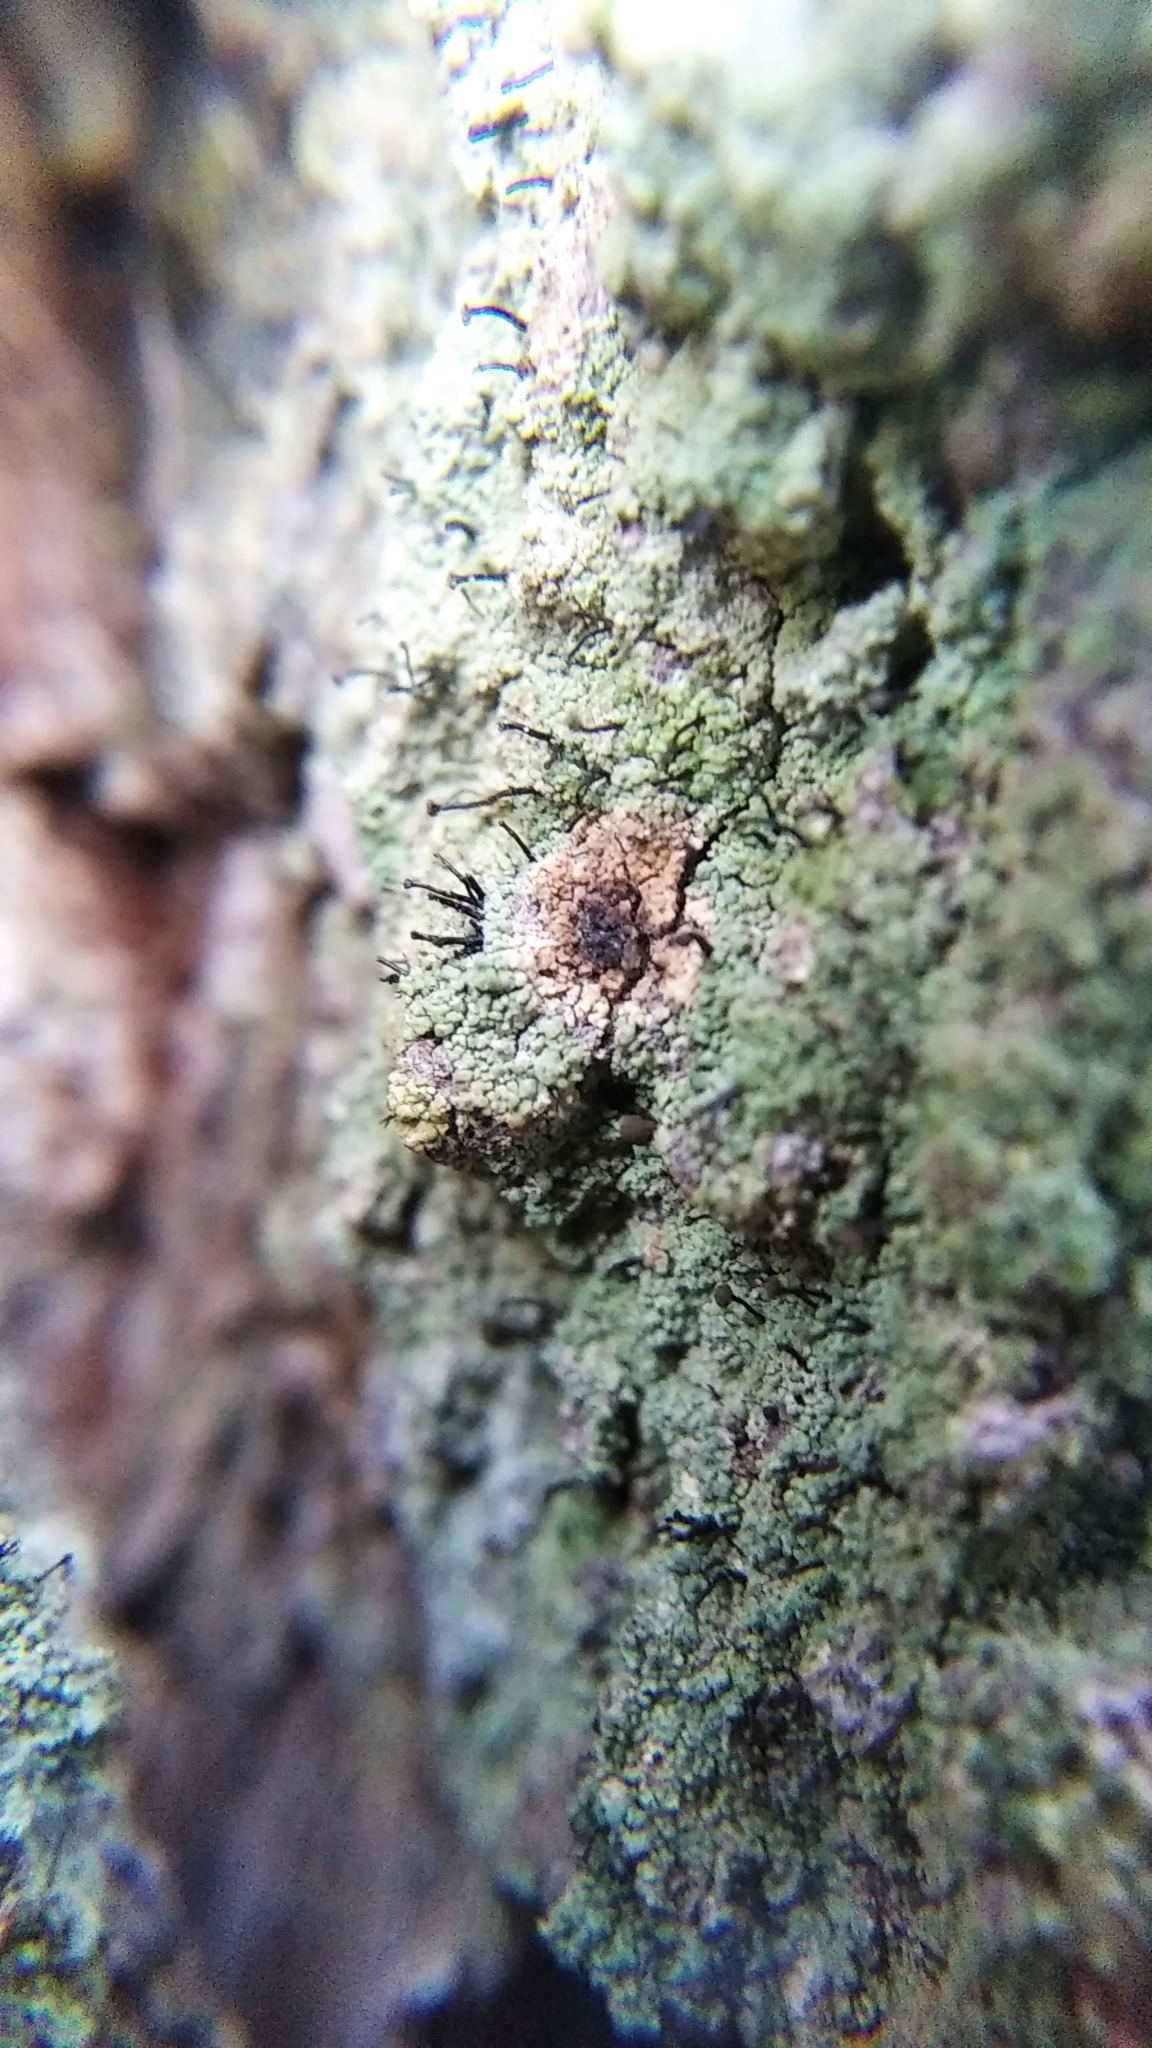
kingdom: Fungi
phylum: Ascomycota
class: Coniocybomycetes
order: Coniocybales
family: Coniocybaceae
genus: Chaenotheca
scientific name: Chaenotheca trichialis
